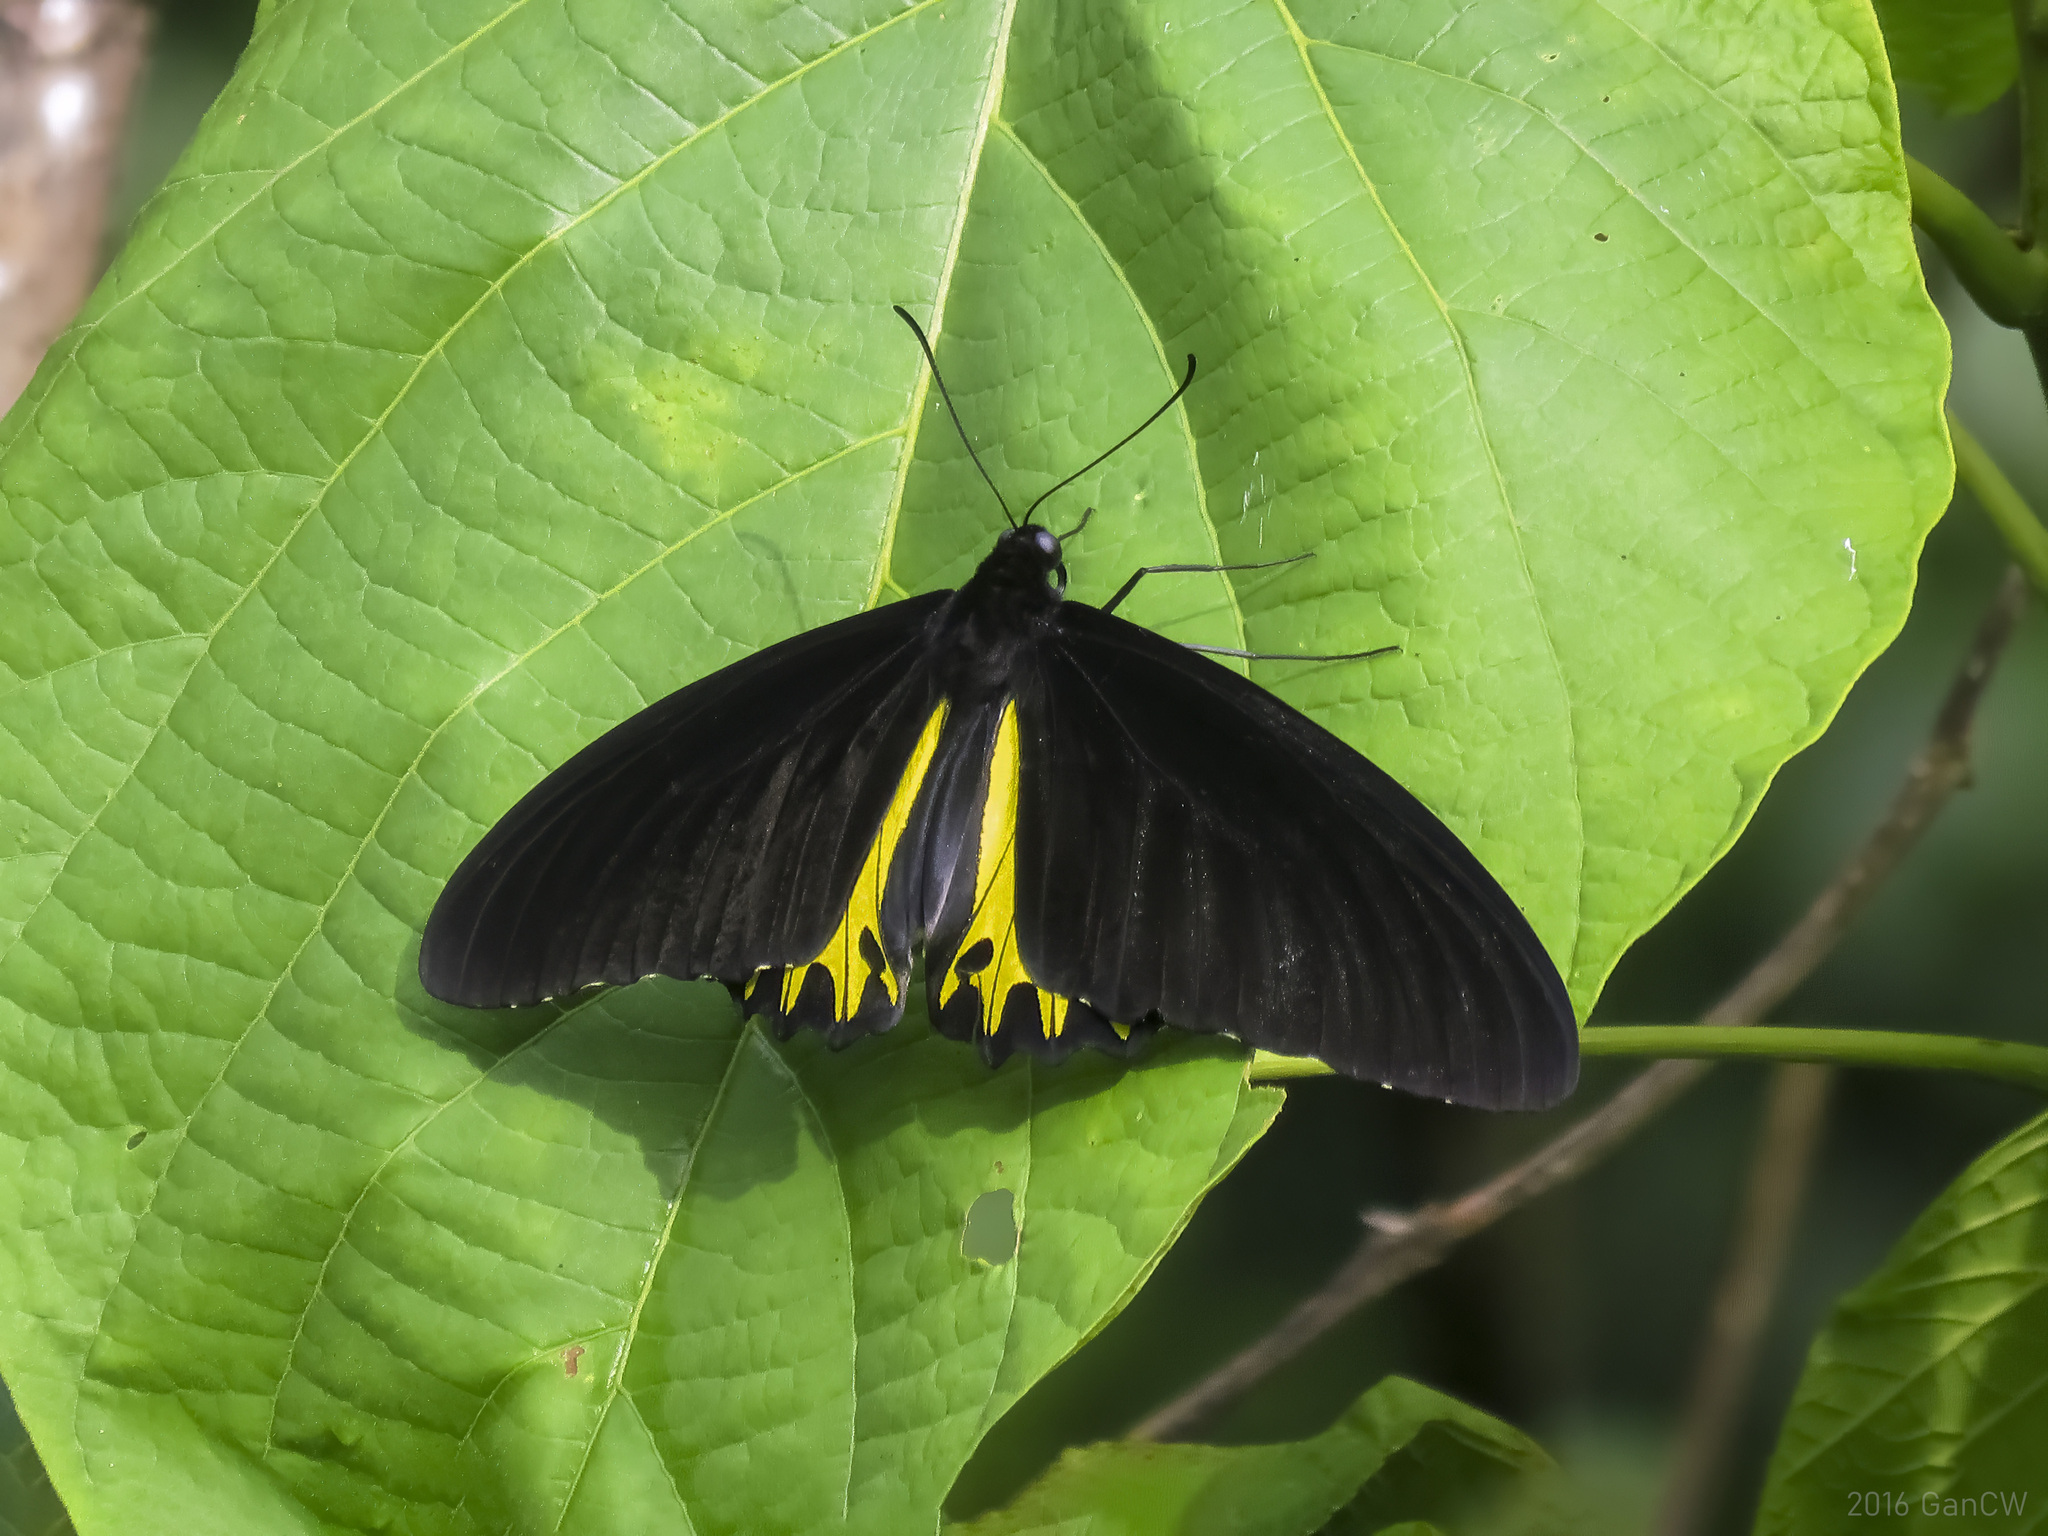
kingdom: Animalia
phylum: Arthropoda
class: Insecta
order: Lepidoptera
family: Papilionidae
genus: Troides
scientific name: Troides helena
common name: Common birdwing
